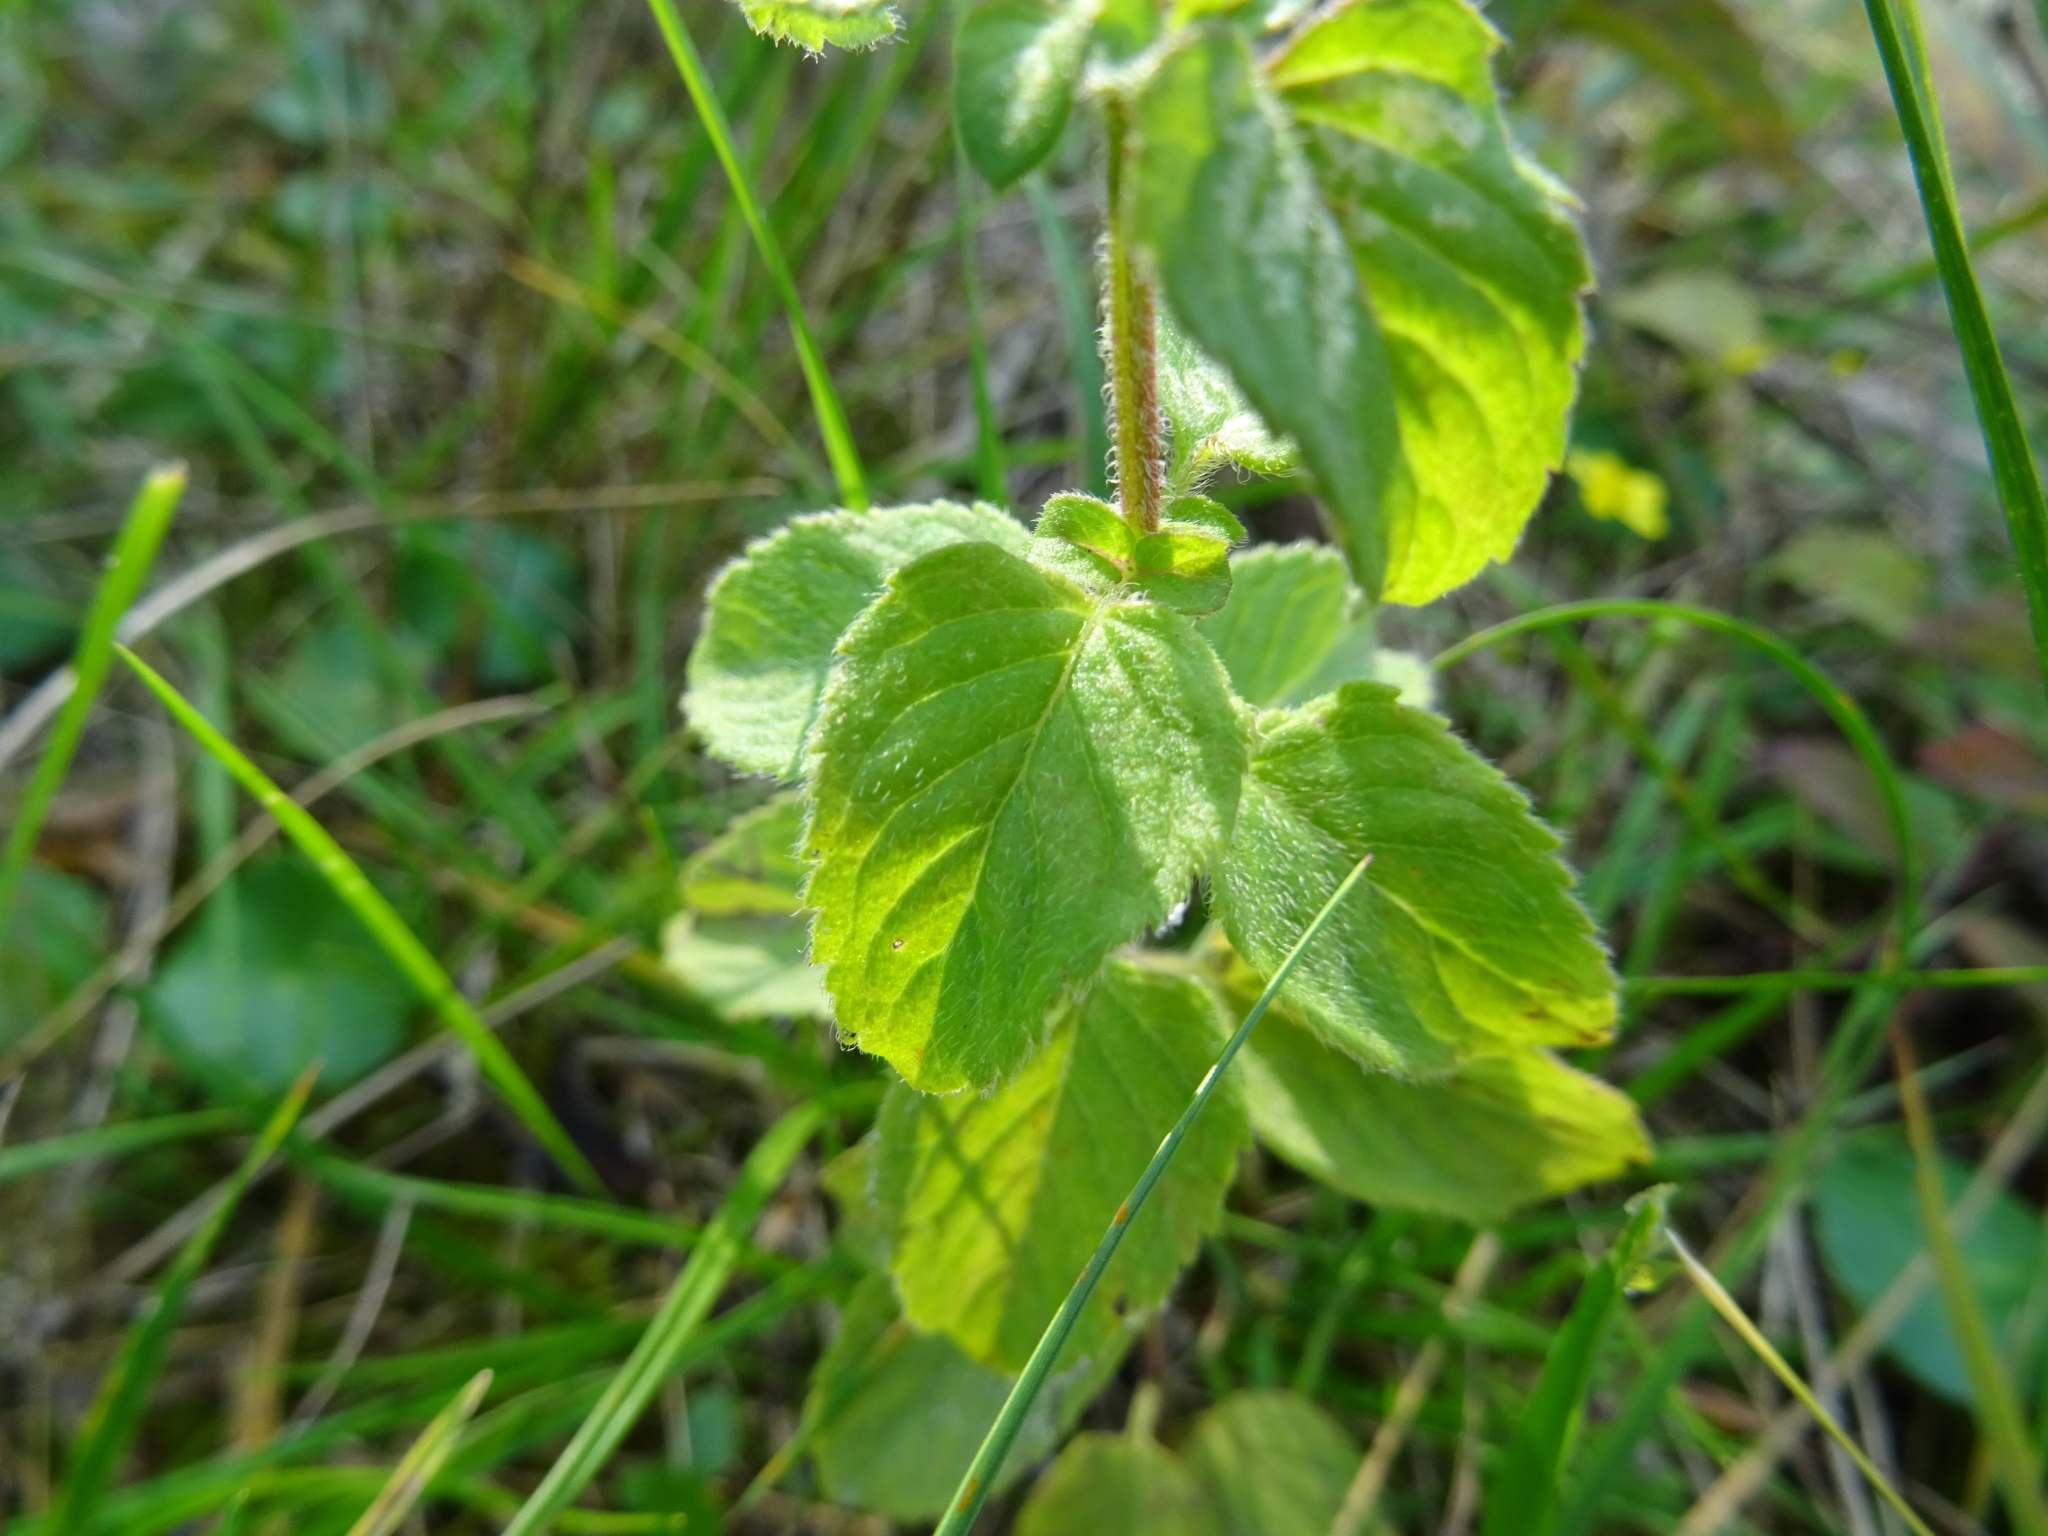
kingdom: Plantae
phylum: Tracheophyta
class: Magnoliopsida
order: Lamiales
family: Lamiaceae
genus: Mentha
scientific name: Mentha aquatica
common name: Water mint
